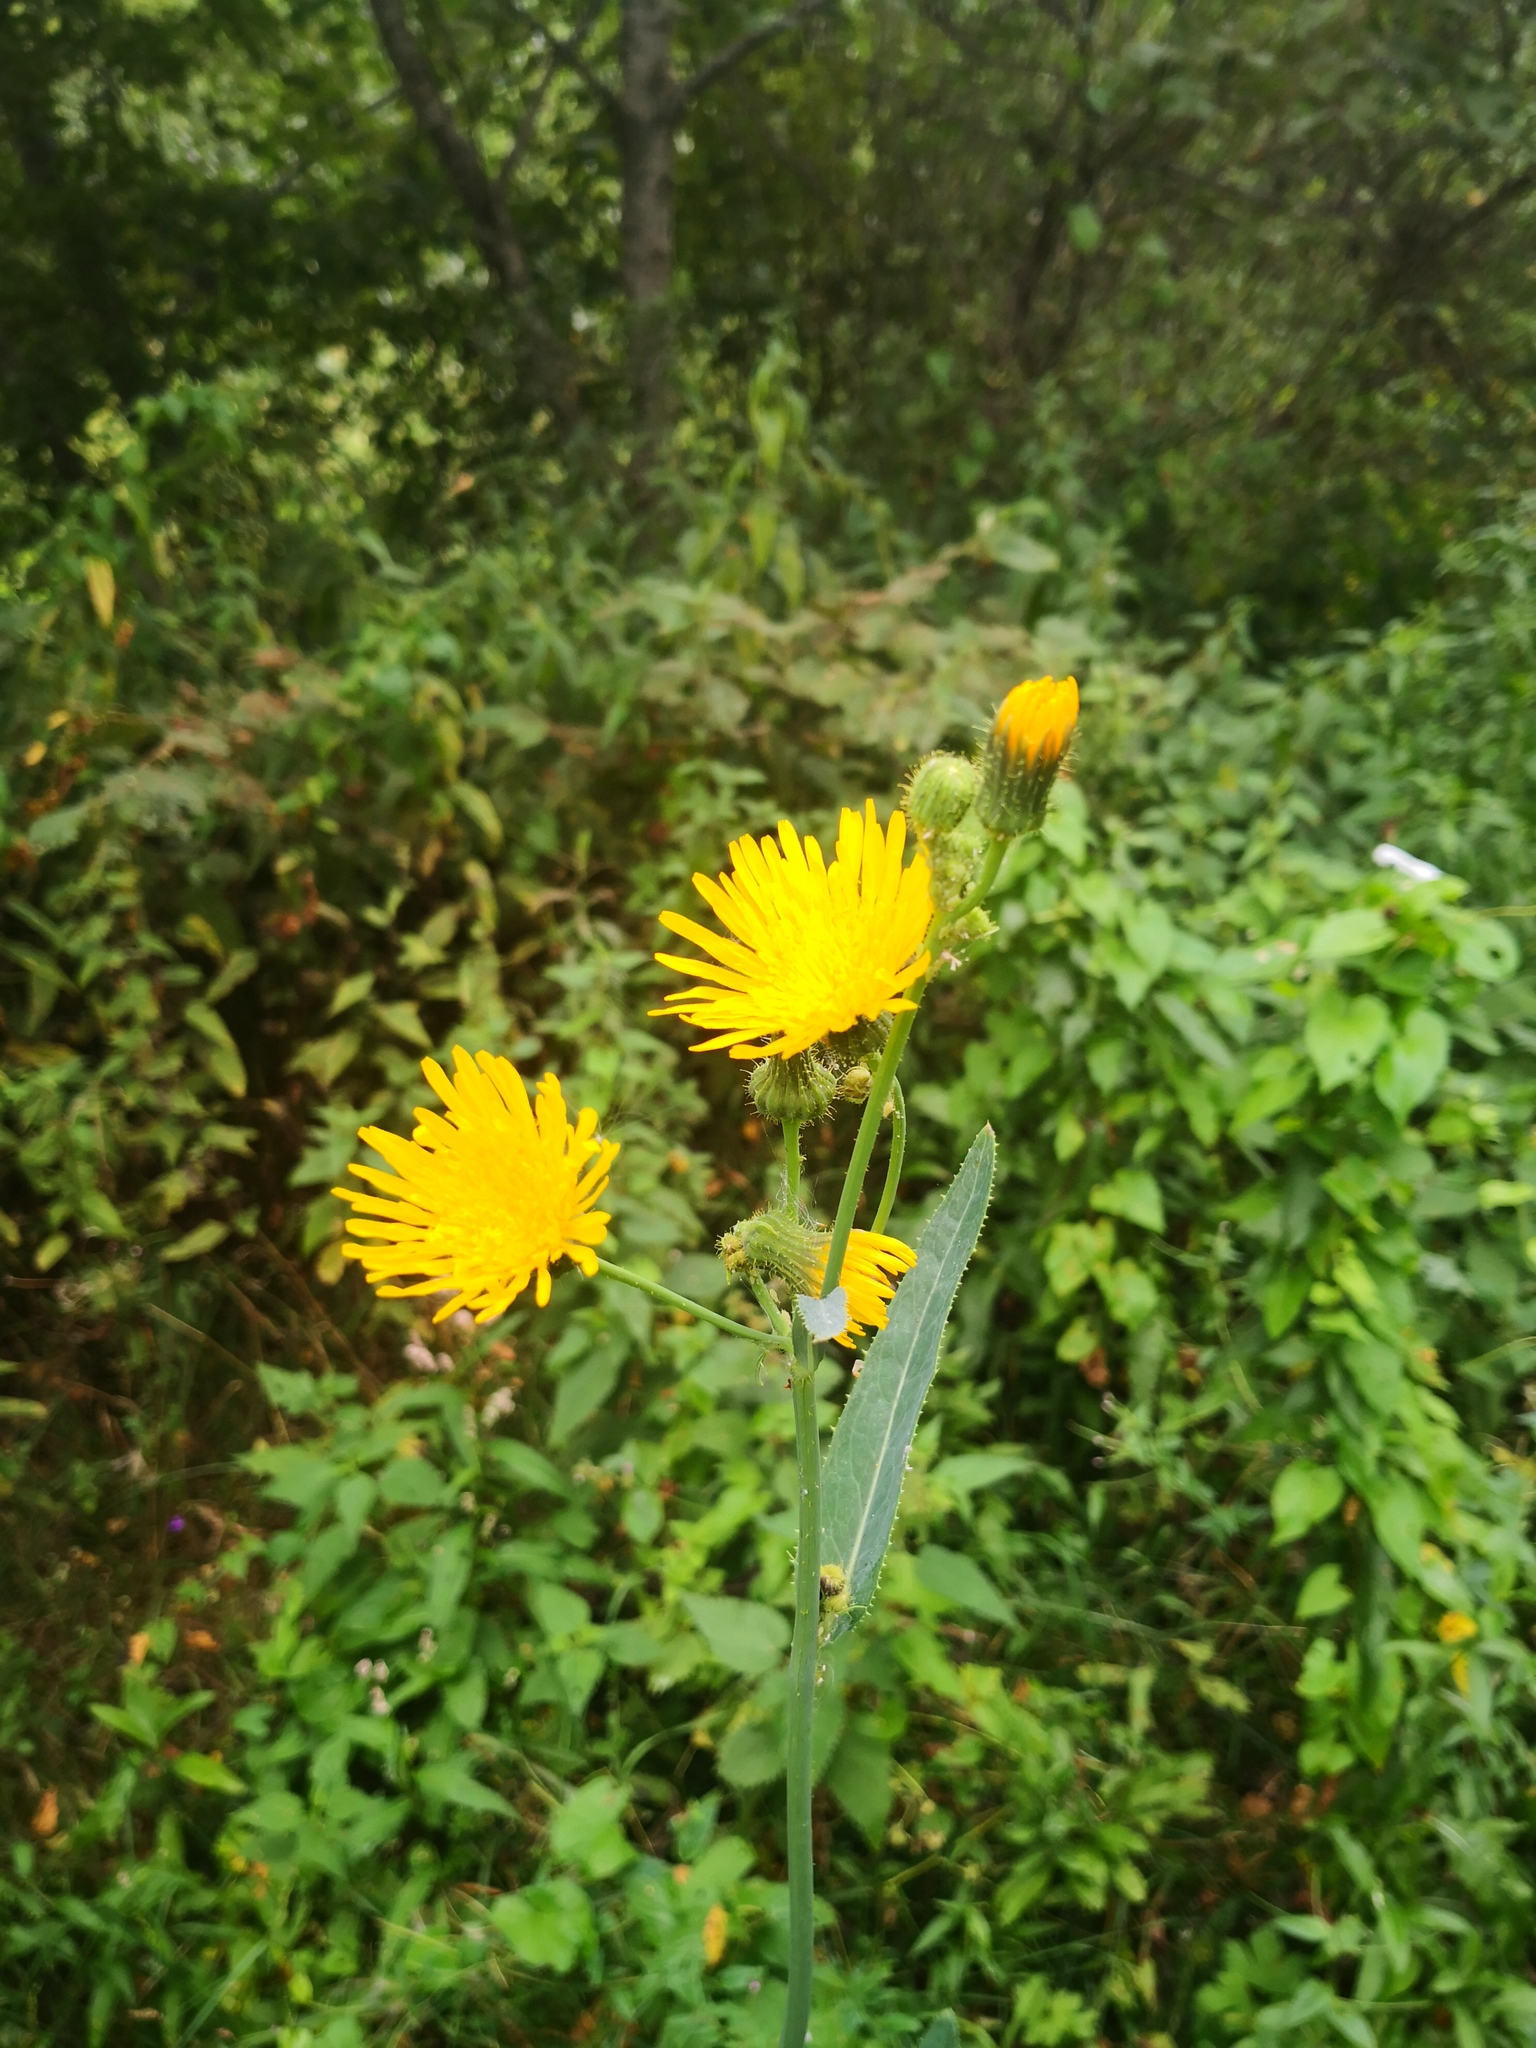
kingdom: Plantae
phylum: Tracheophyta
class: Magnoliopsida
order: Asterales
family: Asteraceae
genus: Sonchus
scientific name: Sonchus arvensis
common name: Perennial sow-thistle
